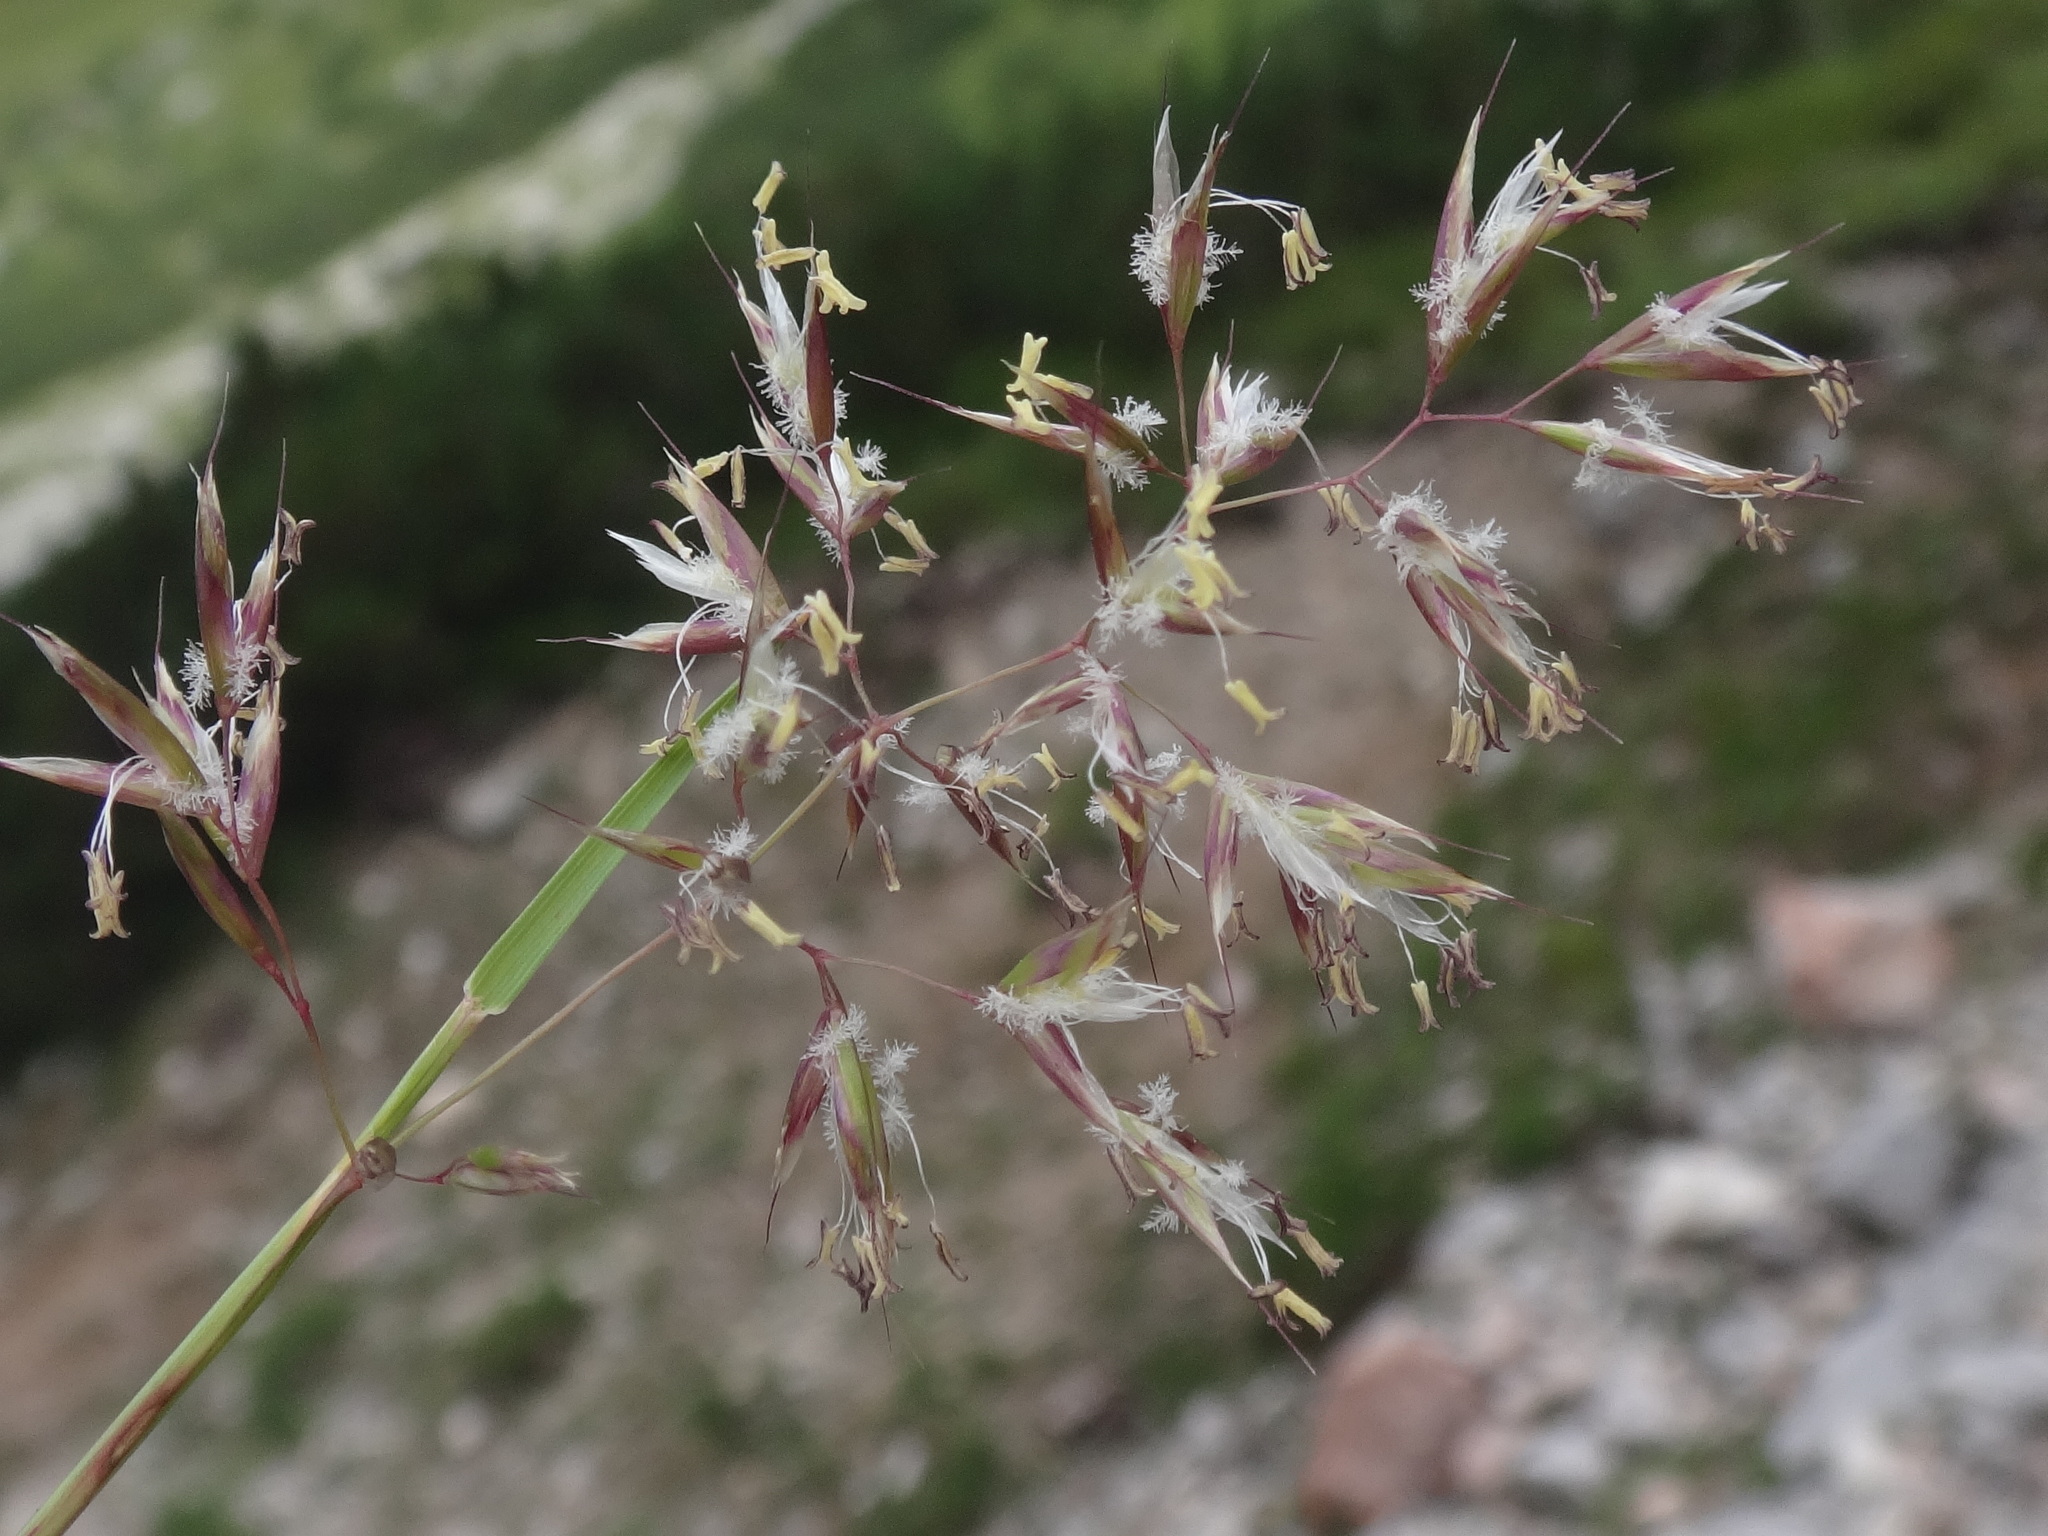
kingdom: Plantae
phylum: Tracheophyta
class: Liliopsida
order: Poales
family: Poaceae
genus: Acrospelion
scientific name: Acrospelion distichophyllum
